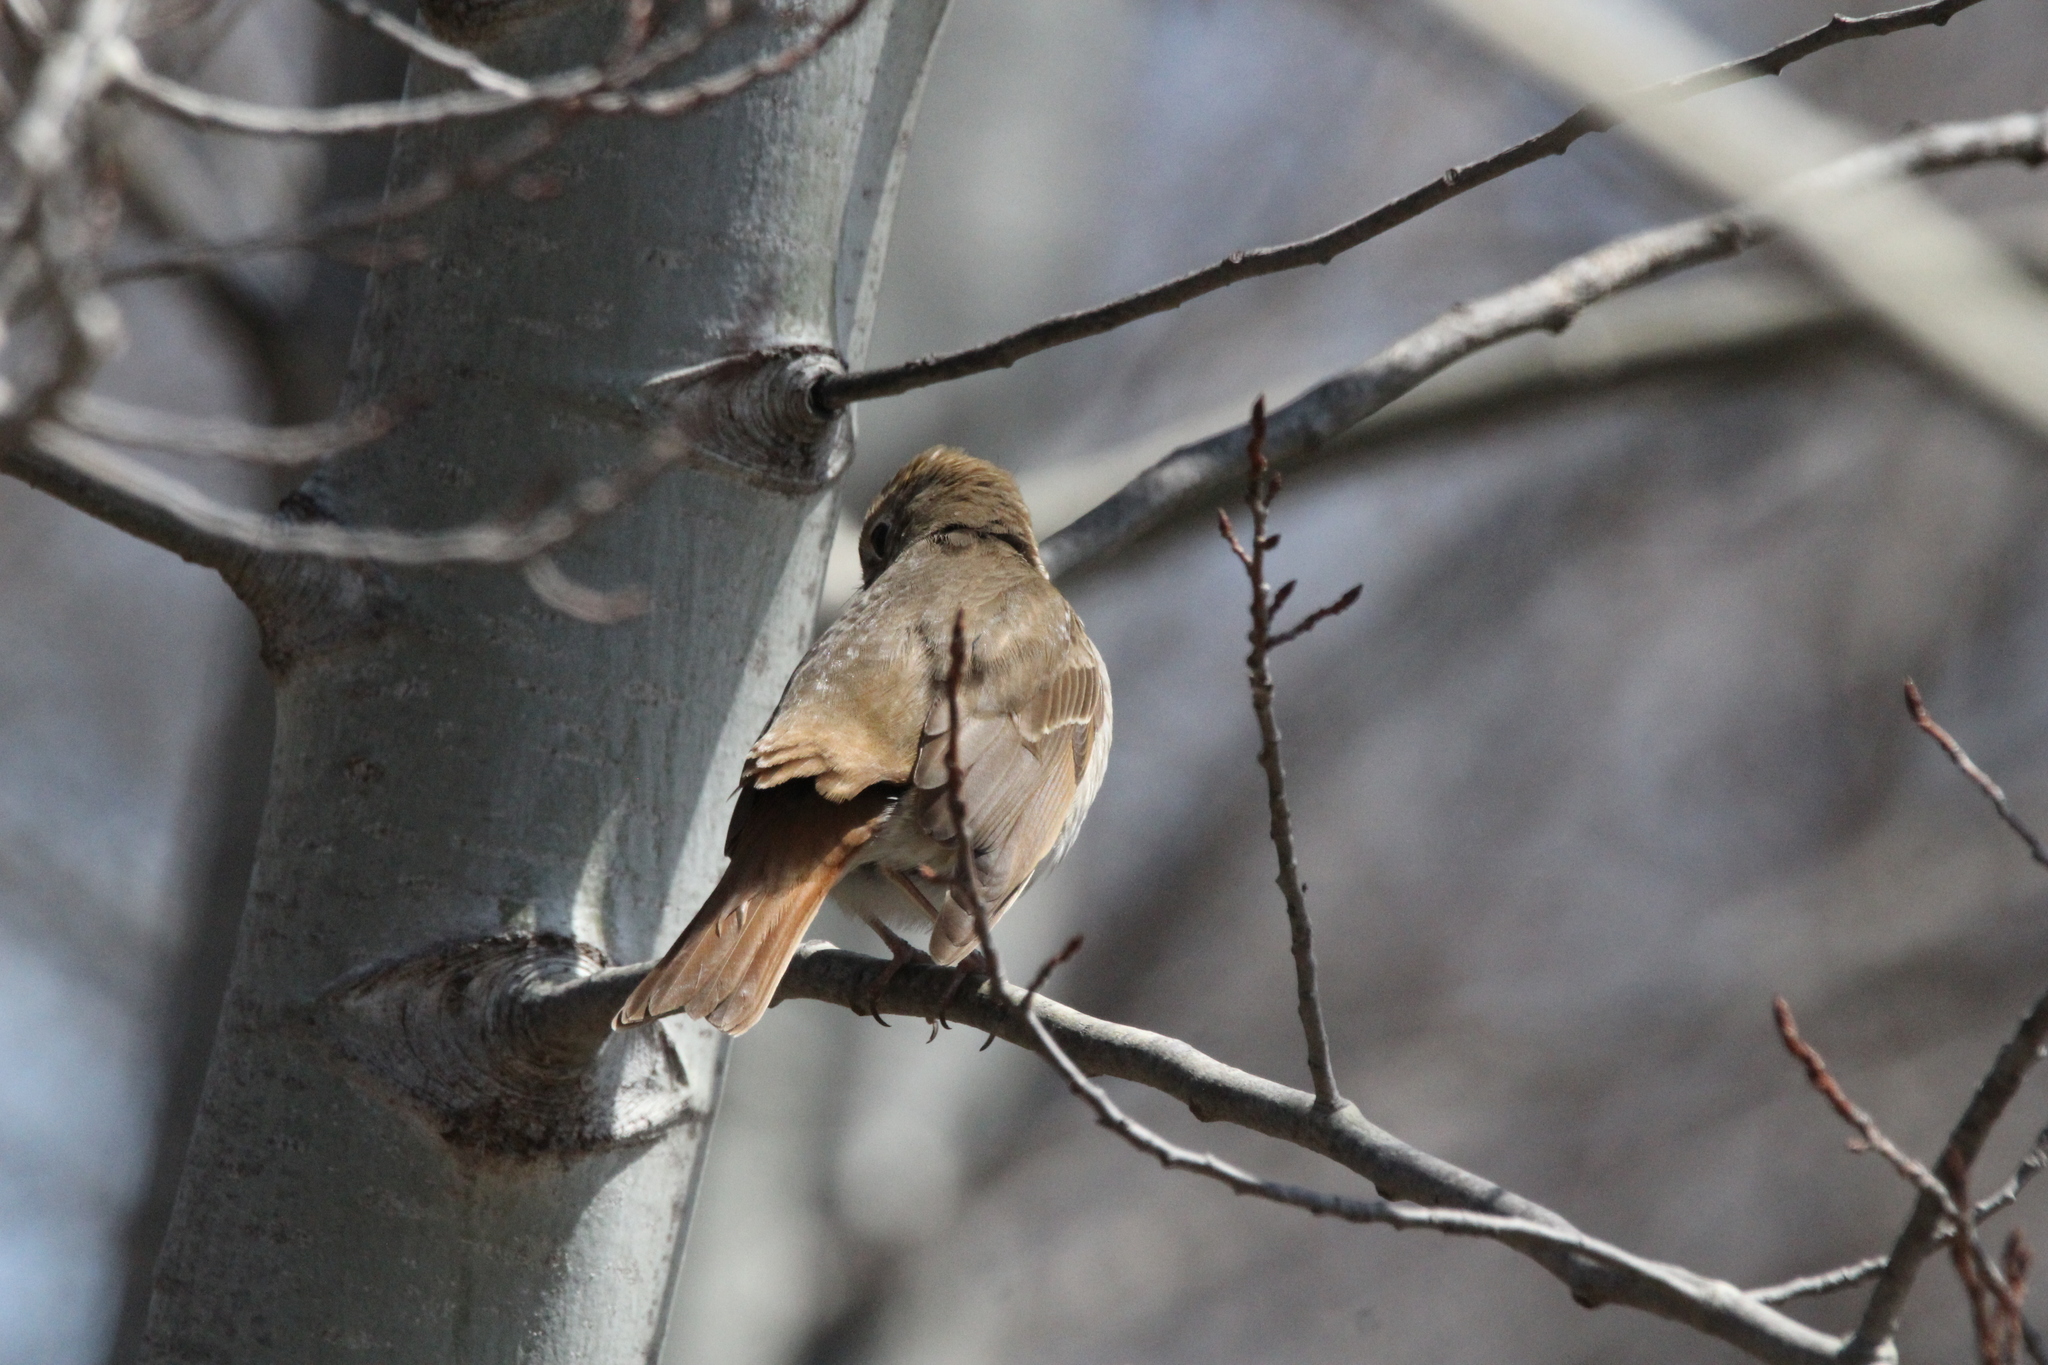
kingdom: Animalia
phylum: Chordata
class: Aves
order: Passeriformes
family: Turdidae
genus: Catharus
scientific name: Catharus guttatus
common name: Hermit thrush
